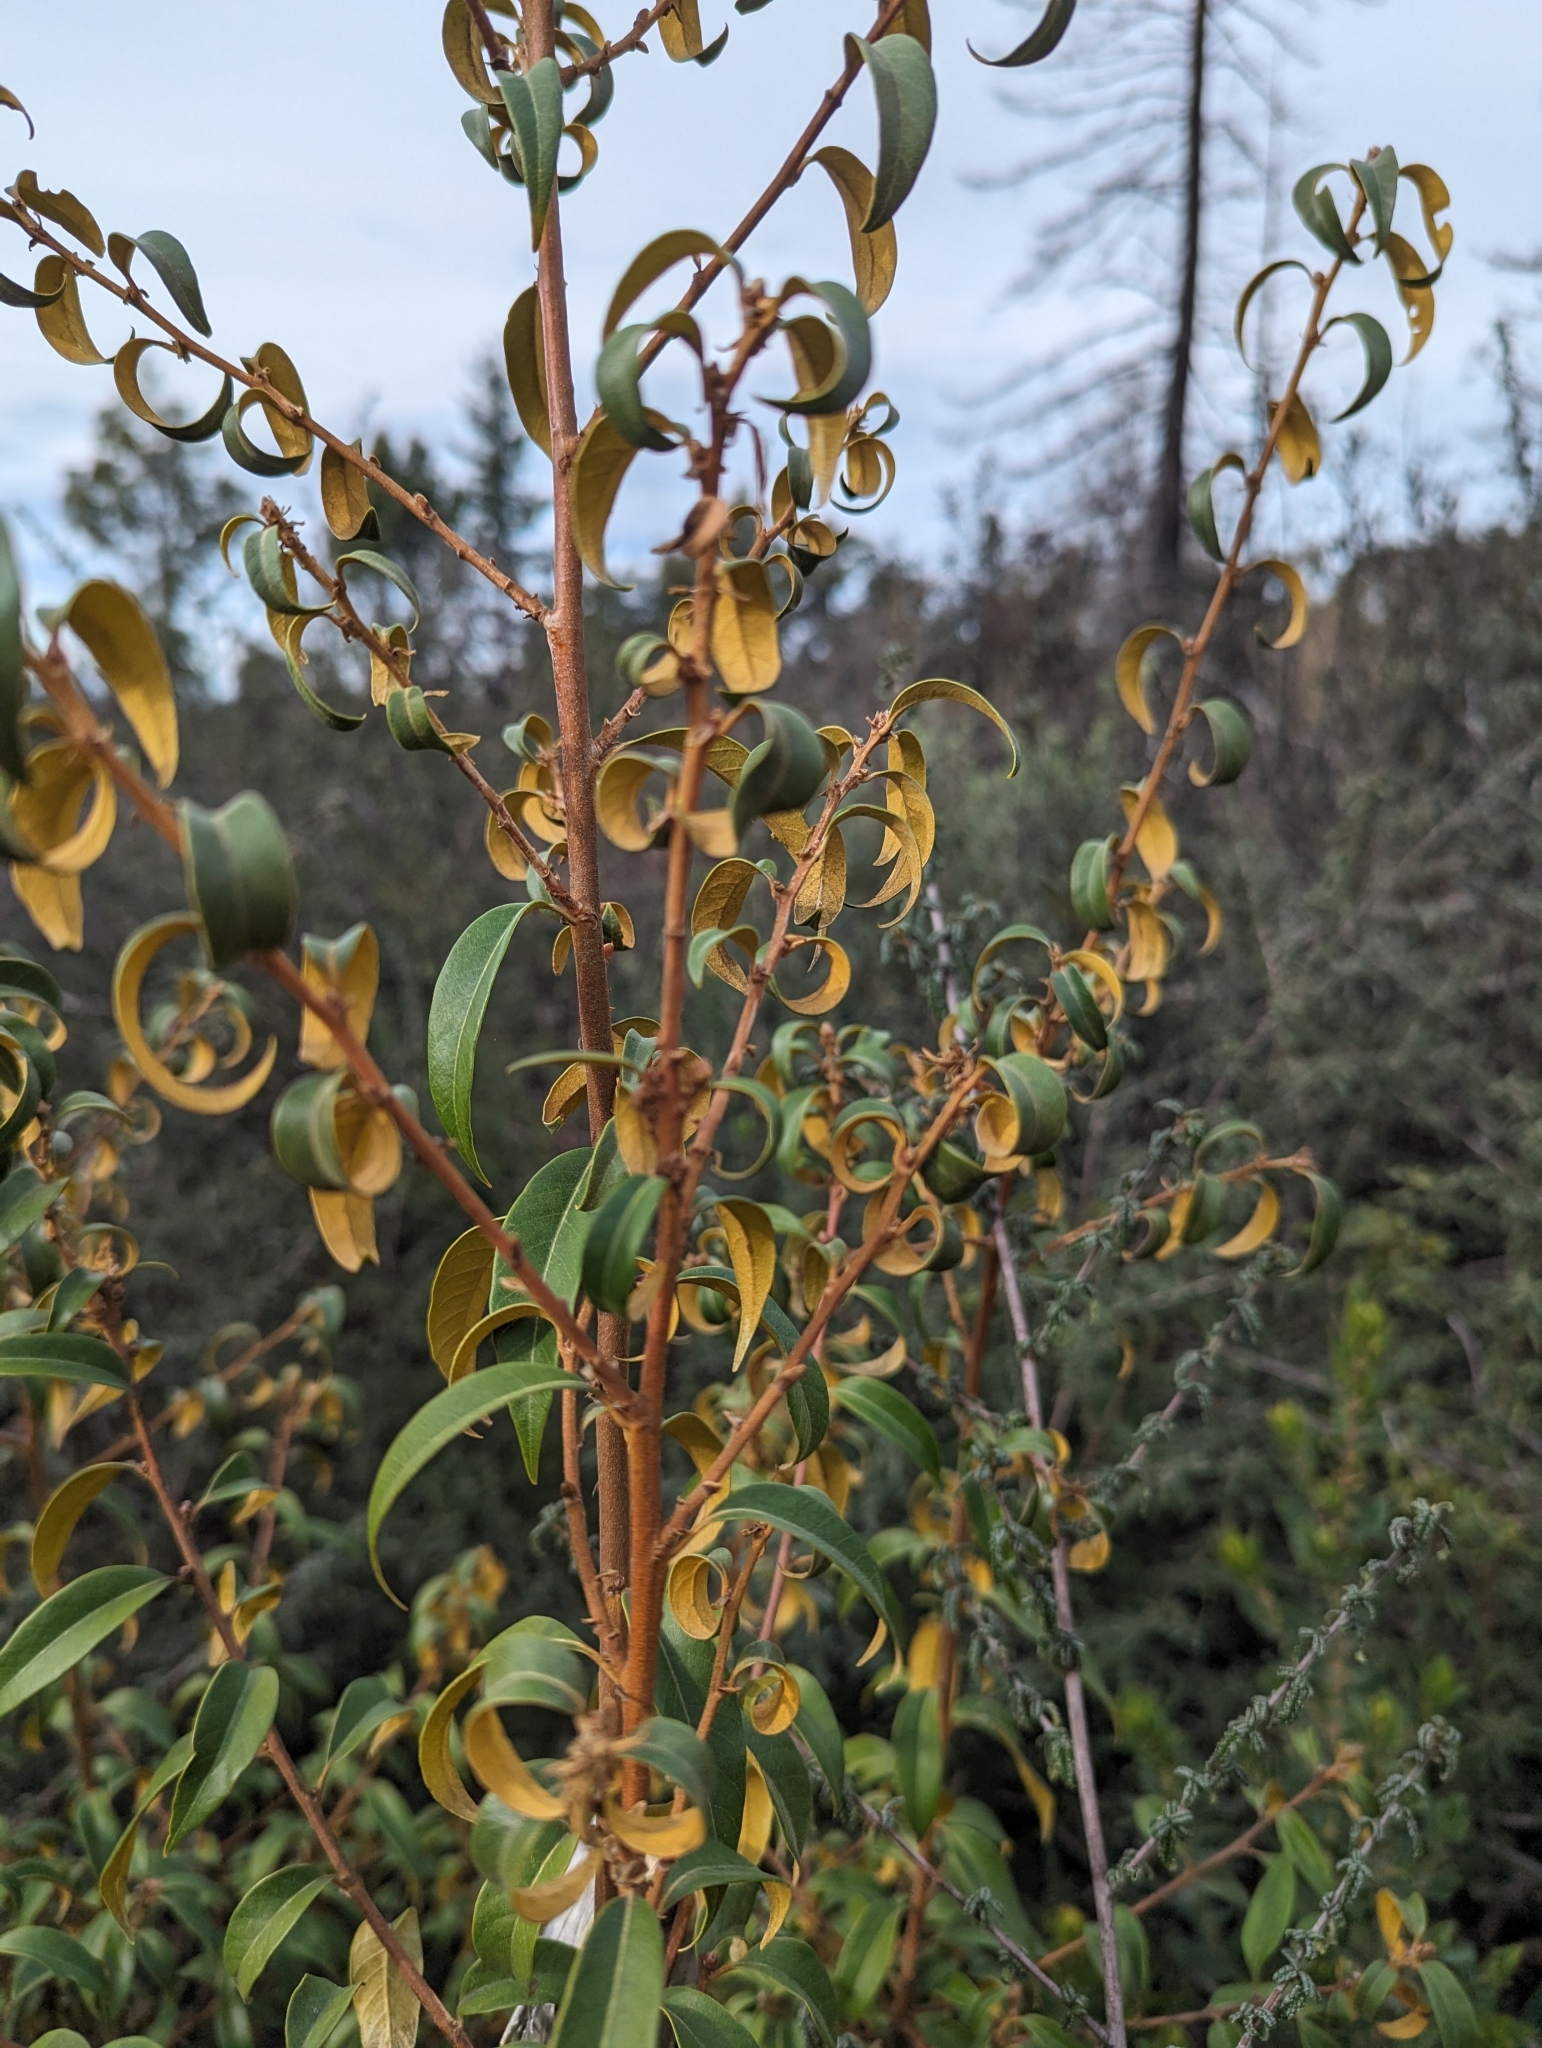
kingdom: Plantae
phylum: Tracheophyta
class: Magnoliopsida
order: Fagales
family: Fagaceae
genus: Chrysolepis
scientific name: Chrysolepis chrysophylla
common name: Giant chinquapin
